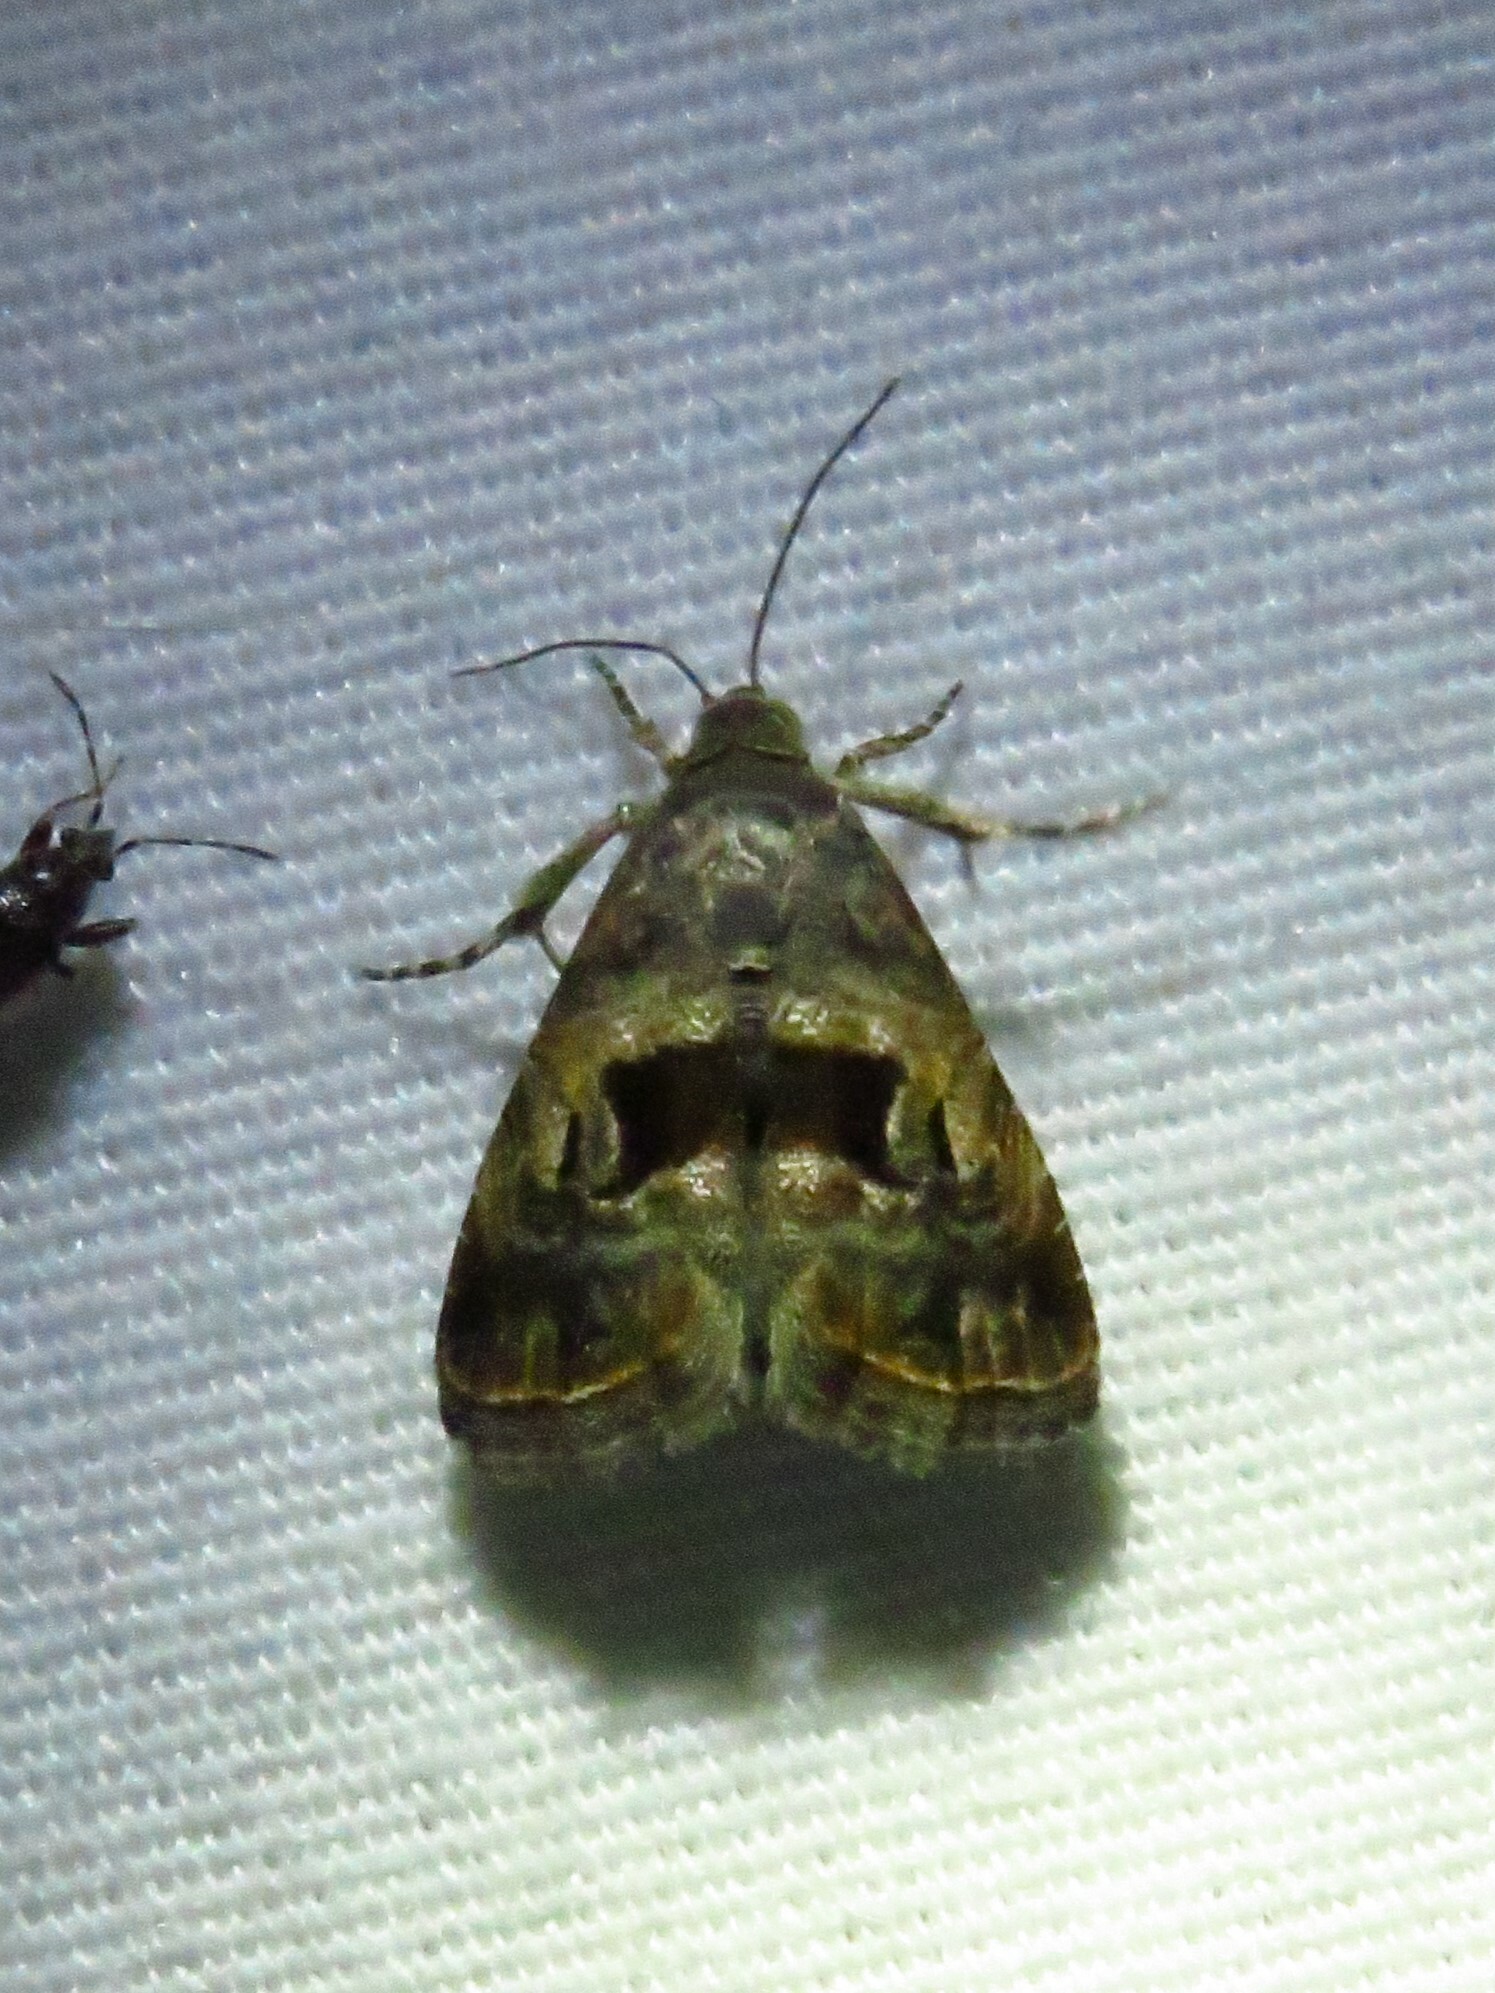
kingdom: Animalia
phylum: Arthropoda
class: Insecta
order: Lepidoptera
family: Noctuidae
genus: Tripudia
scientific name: Tripudia quadrifera
